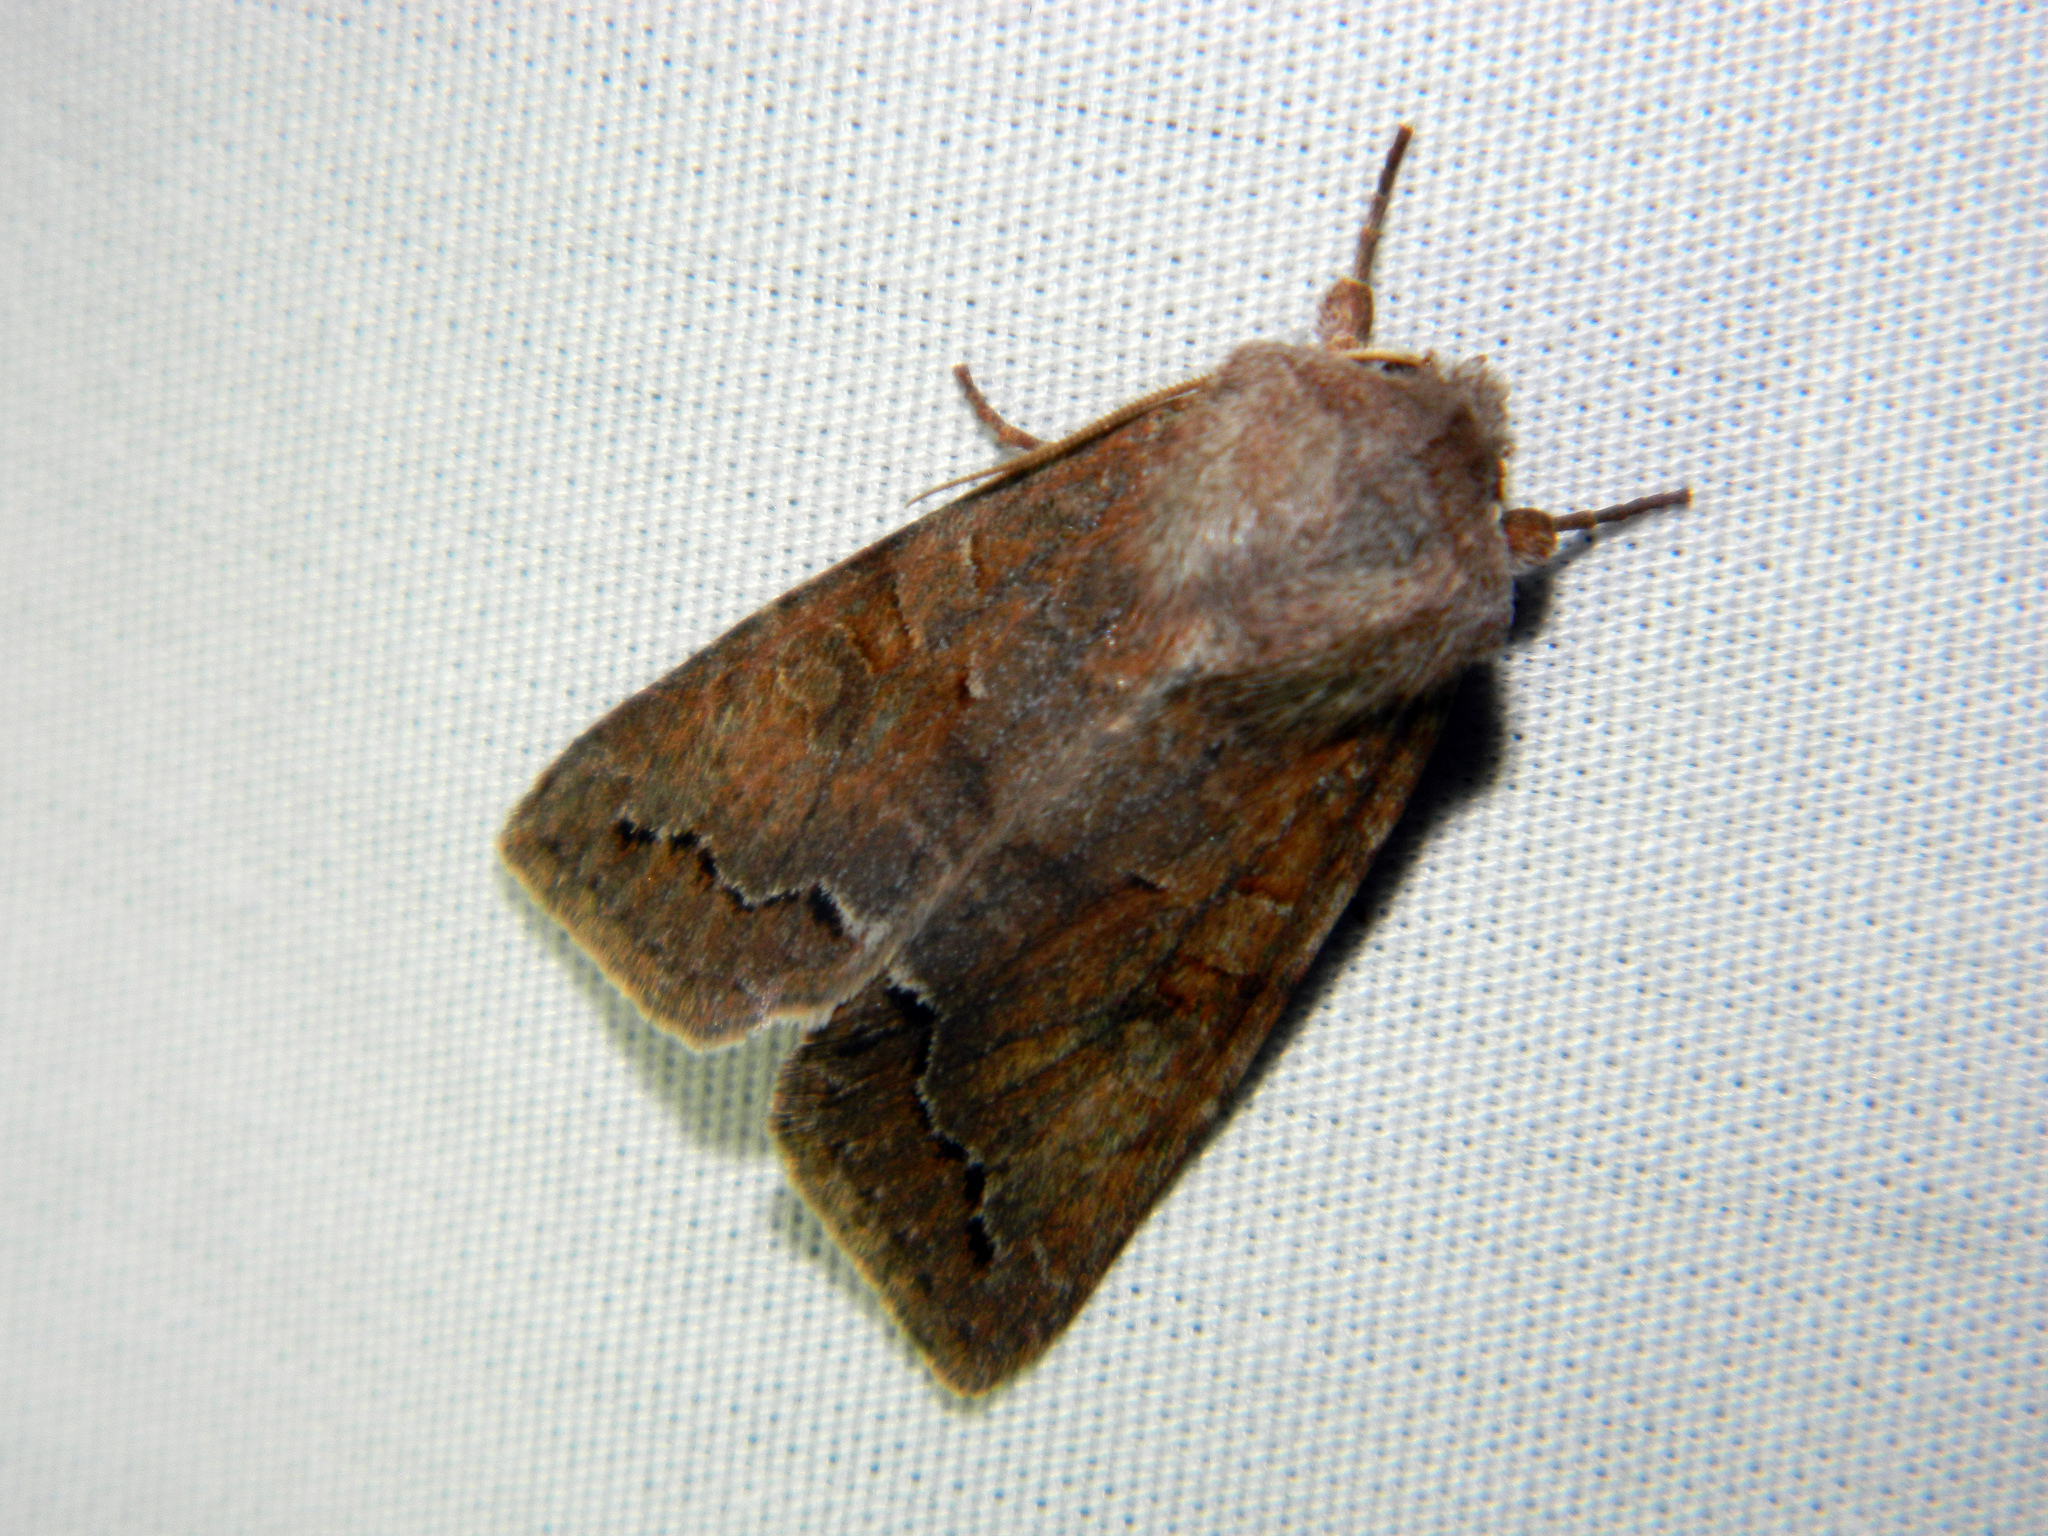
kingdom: Animalia
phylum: Arthropoda
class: Insecta
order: Lepidoptera
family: Noctuidae
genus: Orthosia
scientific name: Orthosia revicta
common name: Rusty whitesided caterpillar
